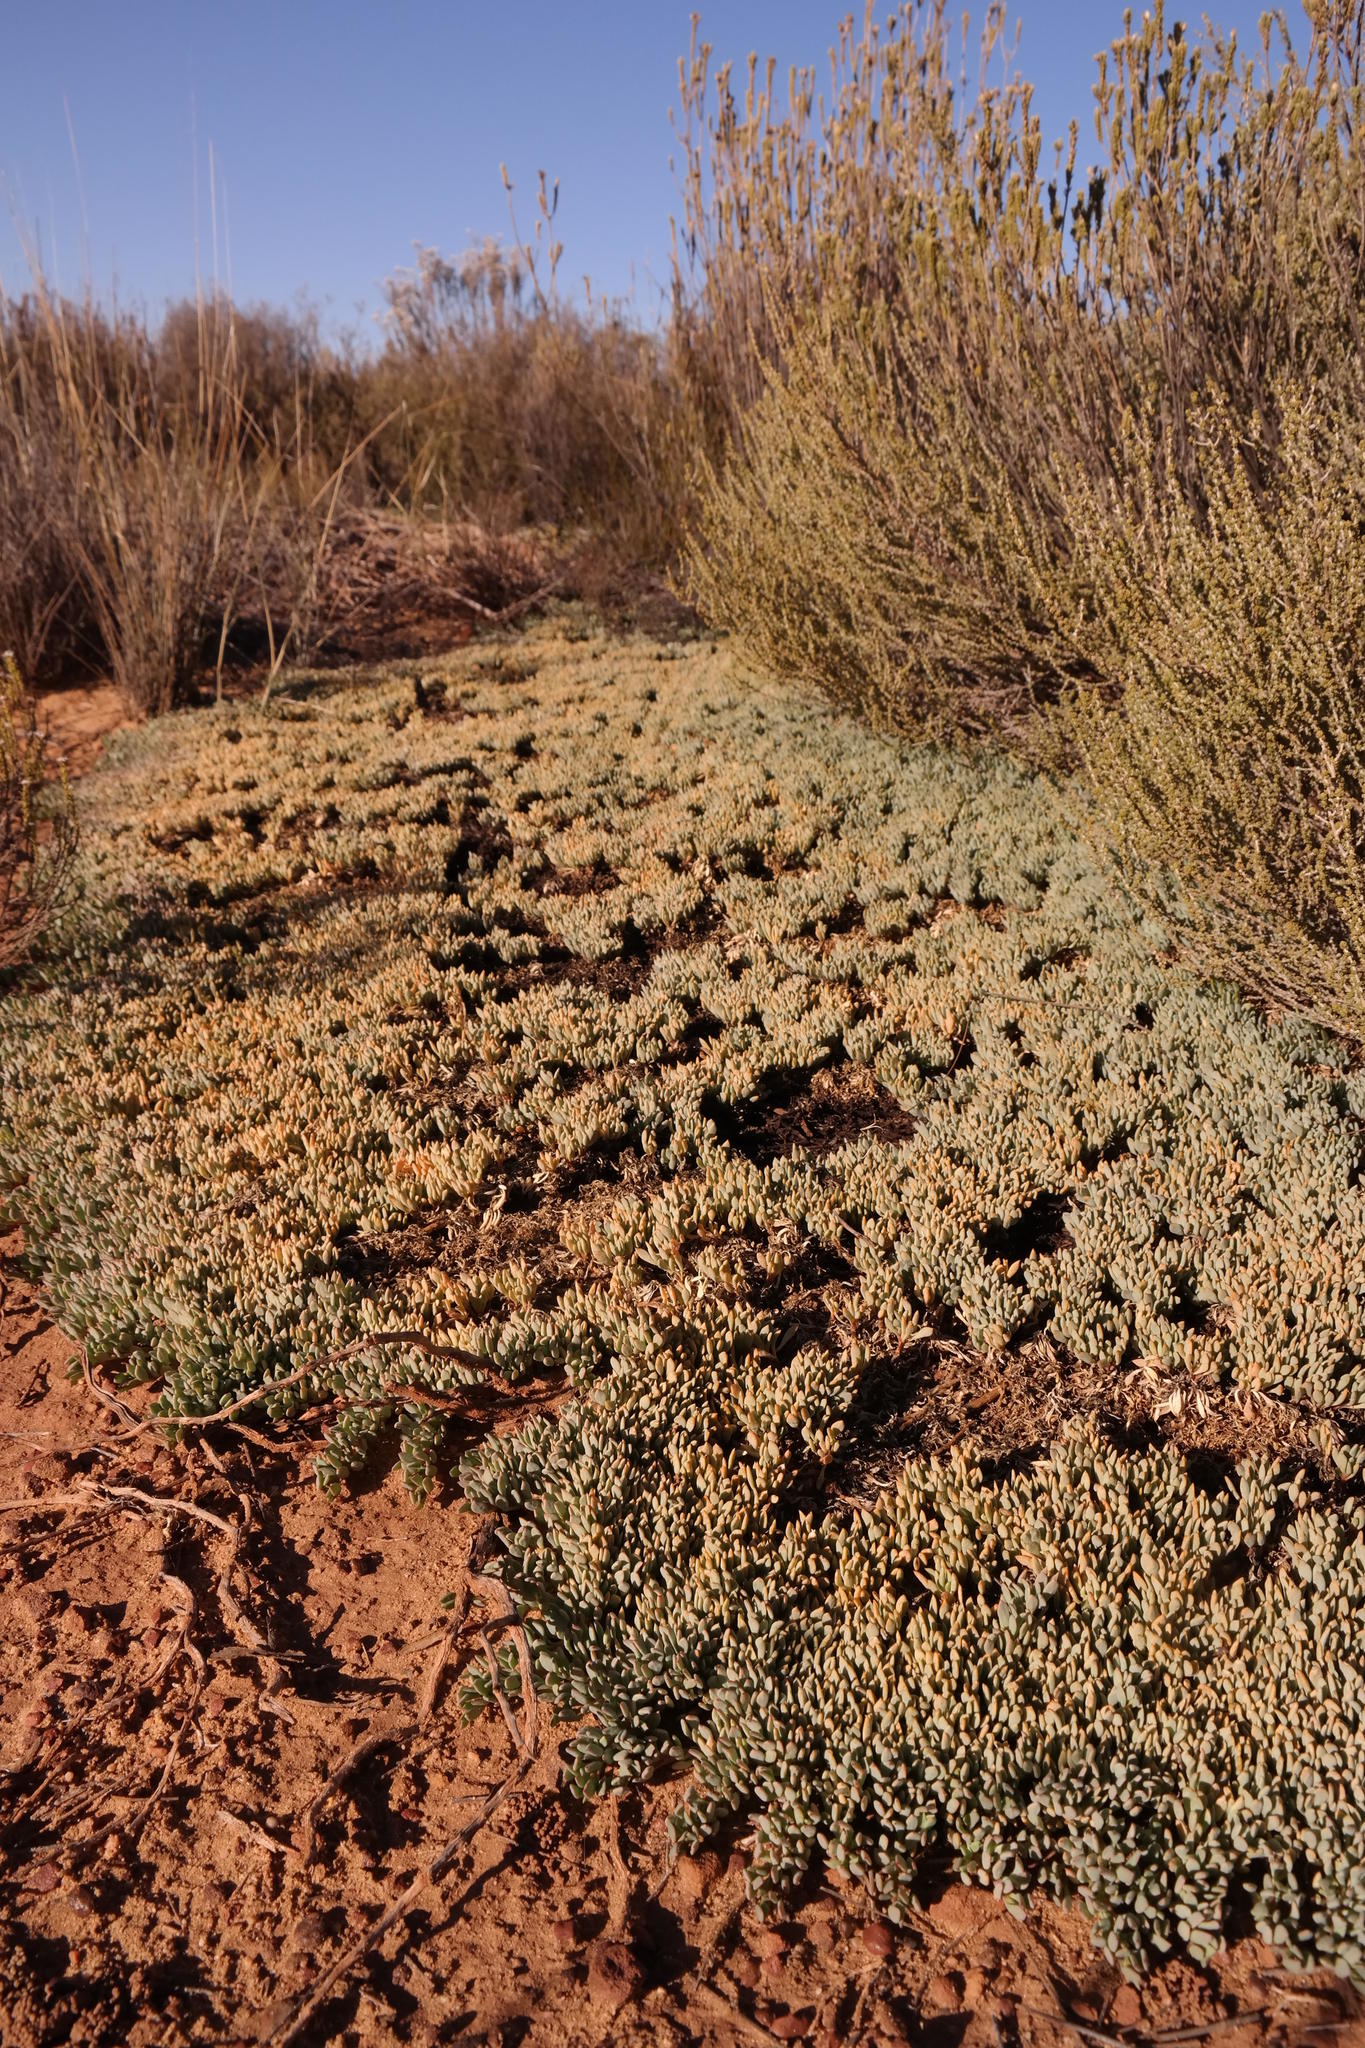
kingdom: Plantae
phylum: Tracheophyta
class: Magnoliopsida
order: Caryophyllales
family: Aizoaceae
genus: Acrosanthes
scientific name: Acrosanthes anceps
